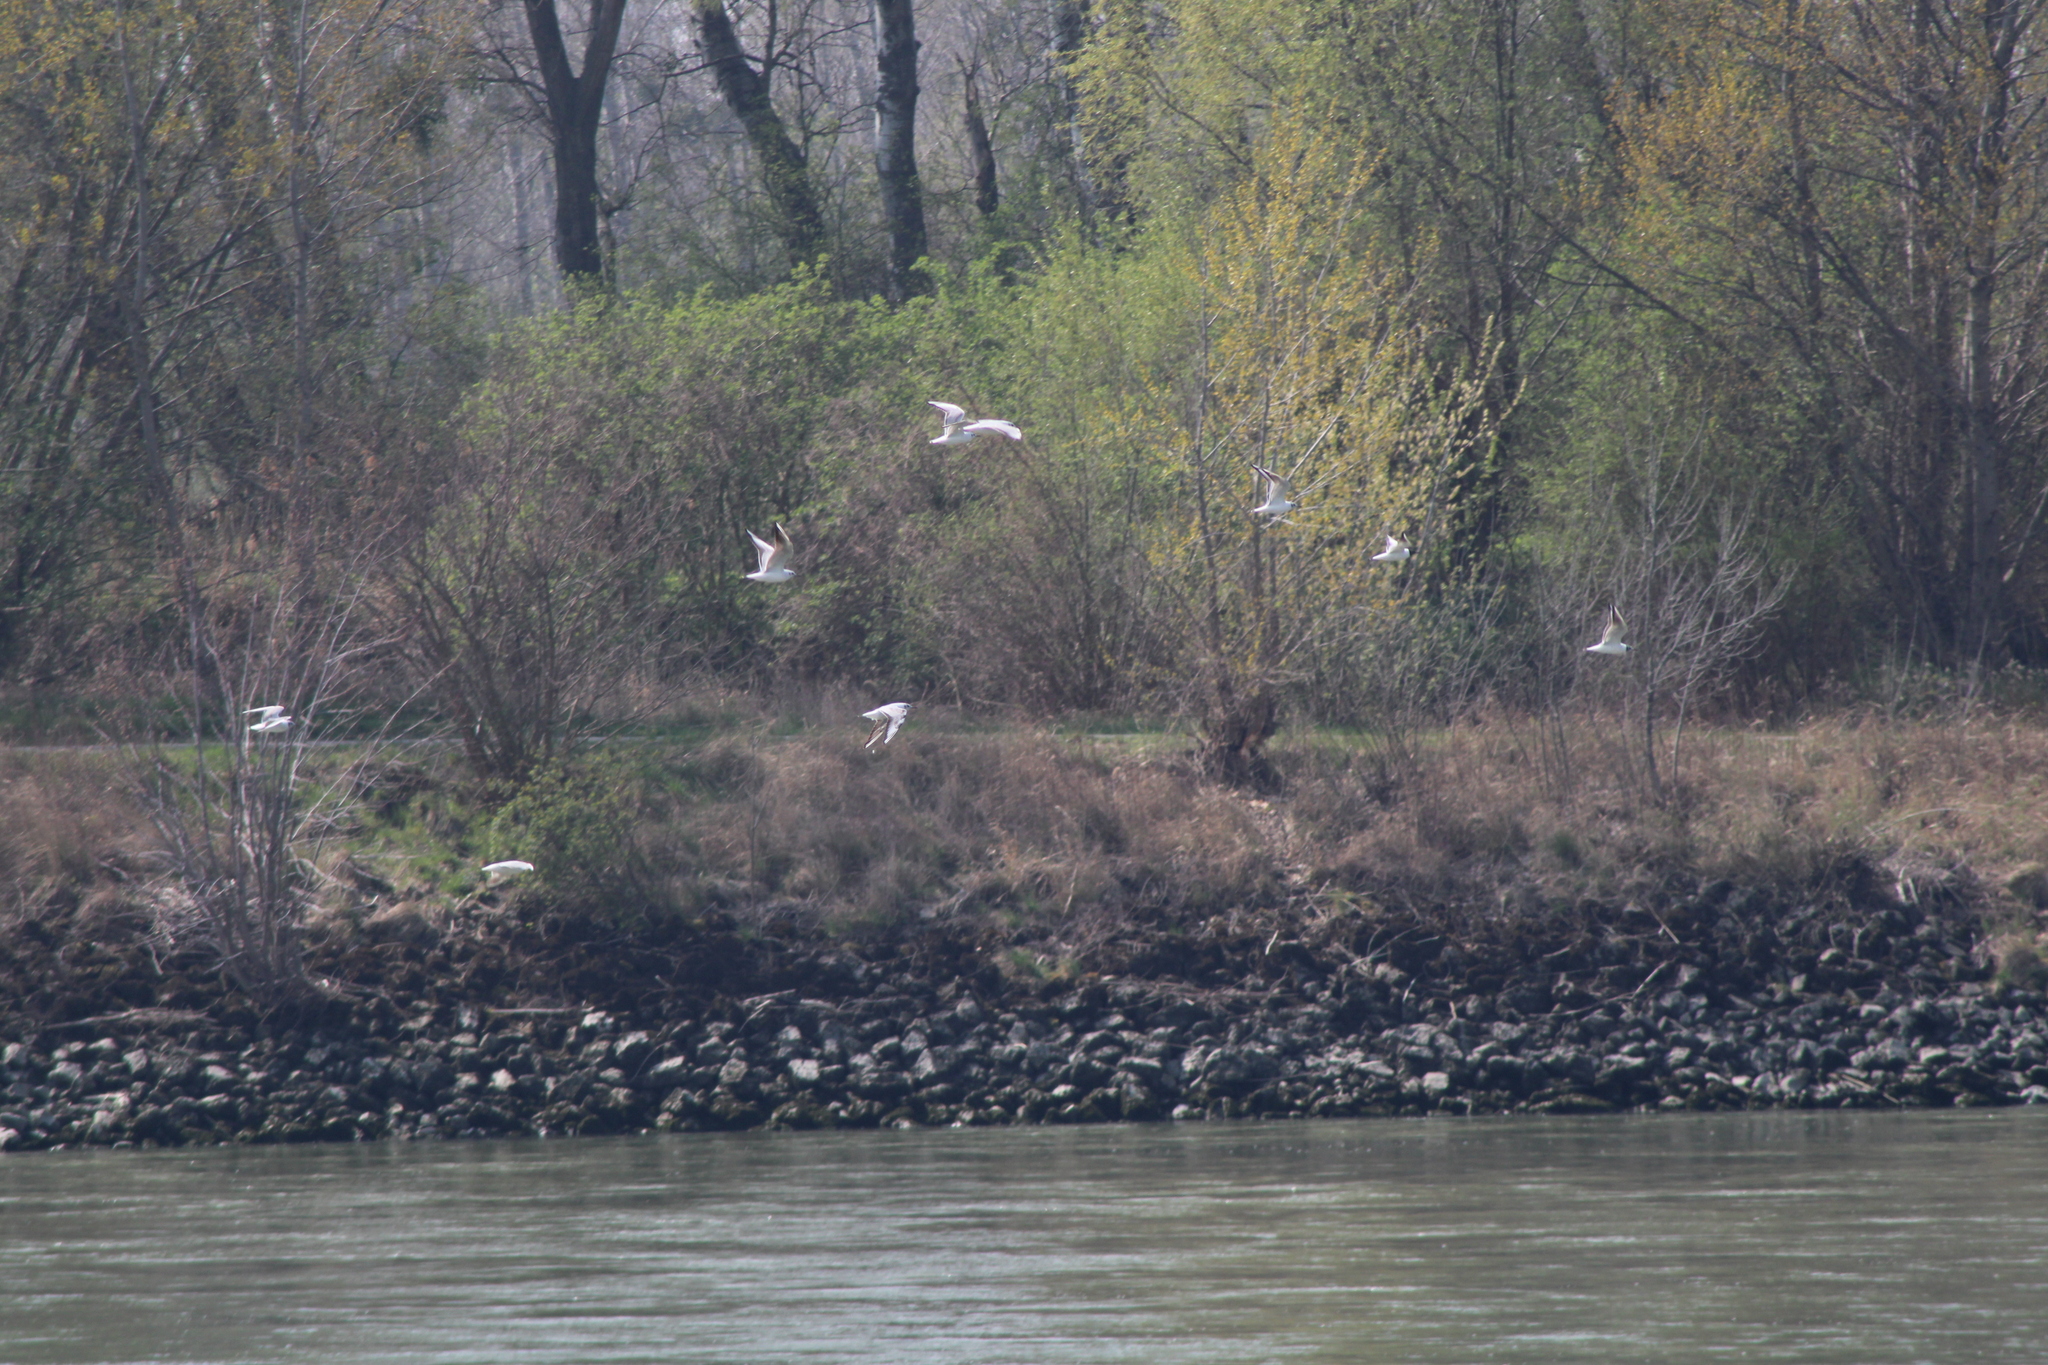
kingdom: Animalia
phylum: Chordata
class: Aves
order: Charadriiformes
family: Laridae
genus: Chroicocephalus
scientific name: Chroicocephalus ridibundus
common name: Black-headed gull
